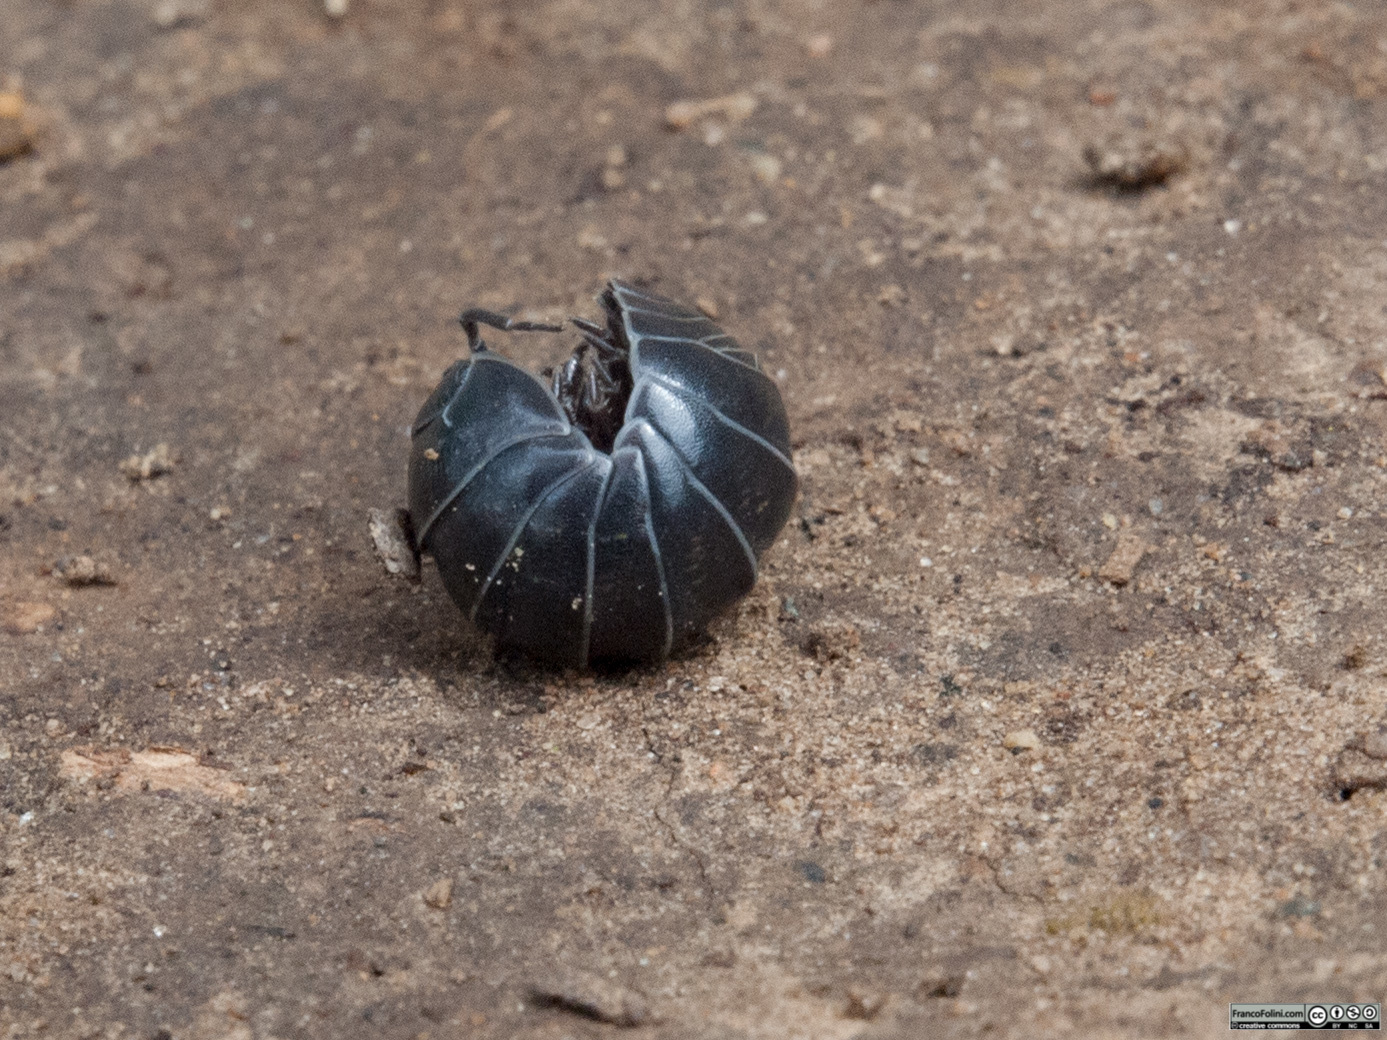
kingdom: Animalia
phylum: Arthropoda
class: Malacostraca
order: Isopoda
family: Armadillidiidae
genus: Armadillidium
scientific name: Armadillidium vulgare
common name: Common pill woodlouse
